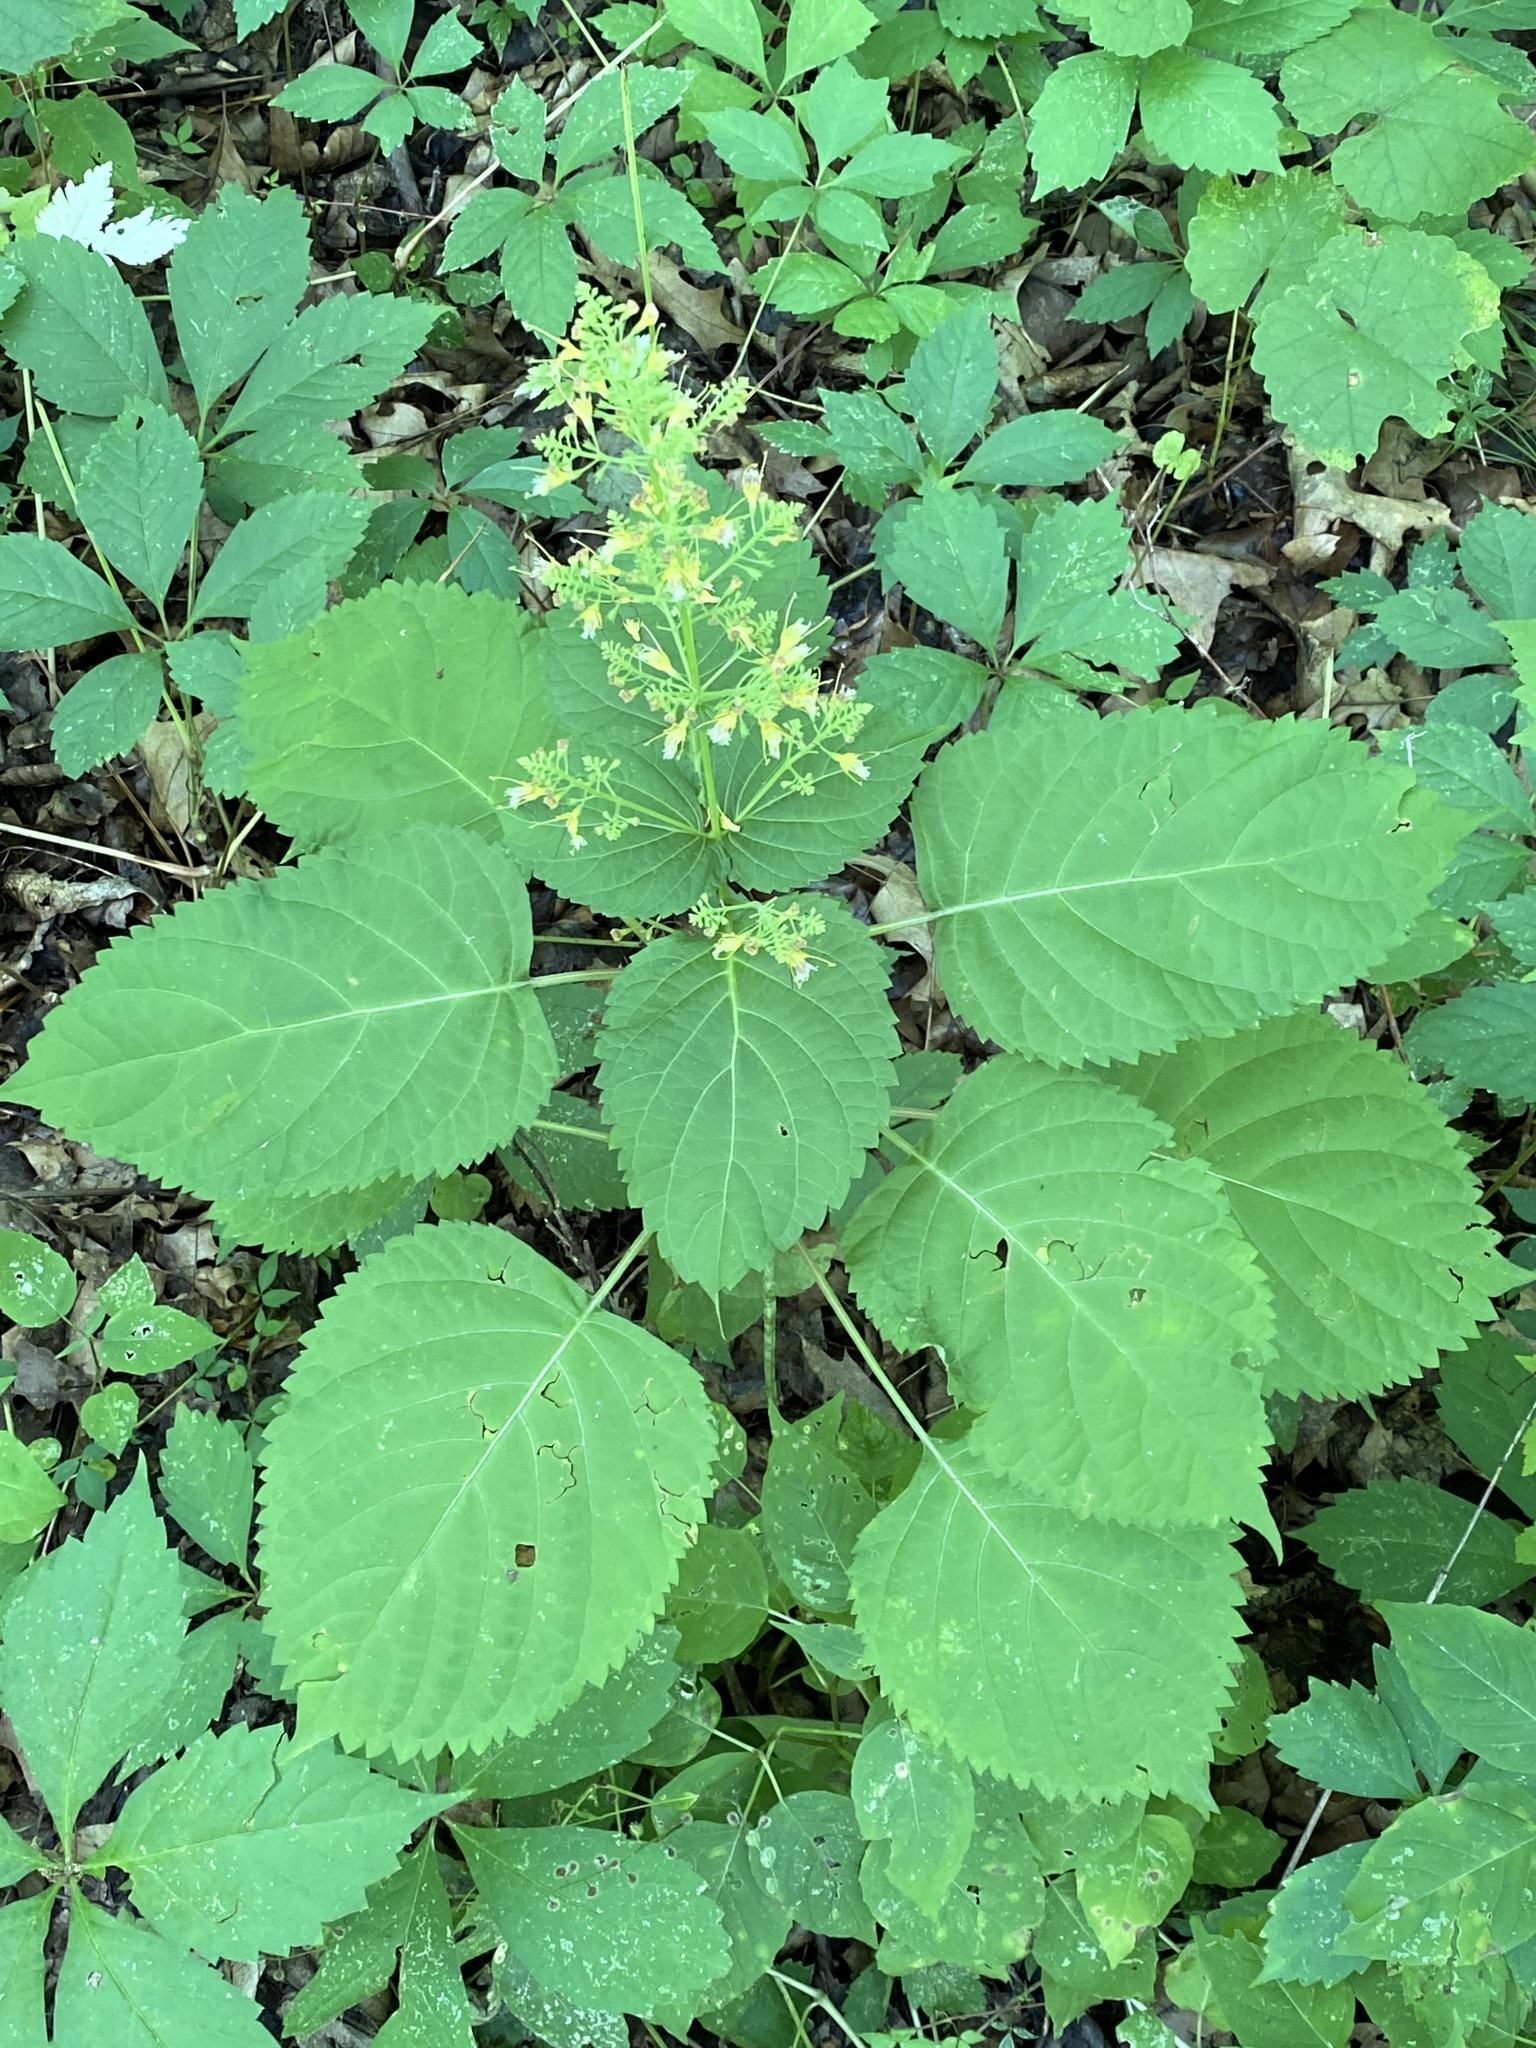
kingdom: Plantae
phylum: Tracheophyta
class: Magnoliopsida
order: Lamiales
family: Lamiaceae
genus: Collinsonia
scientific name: Collinsonia canadensis
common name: Northern horsebalm
